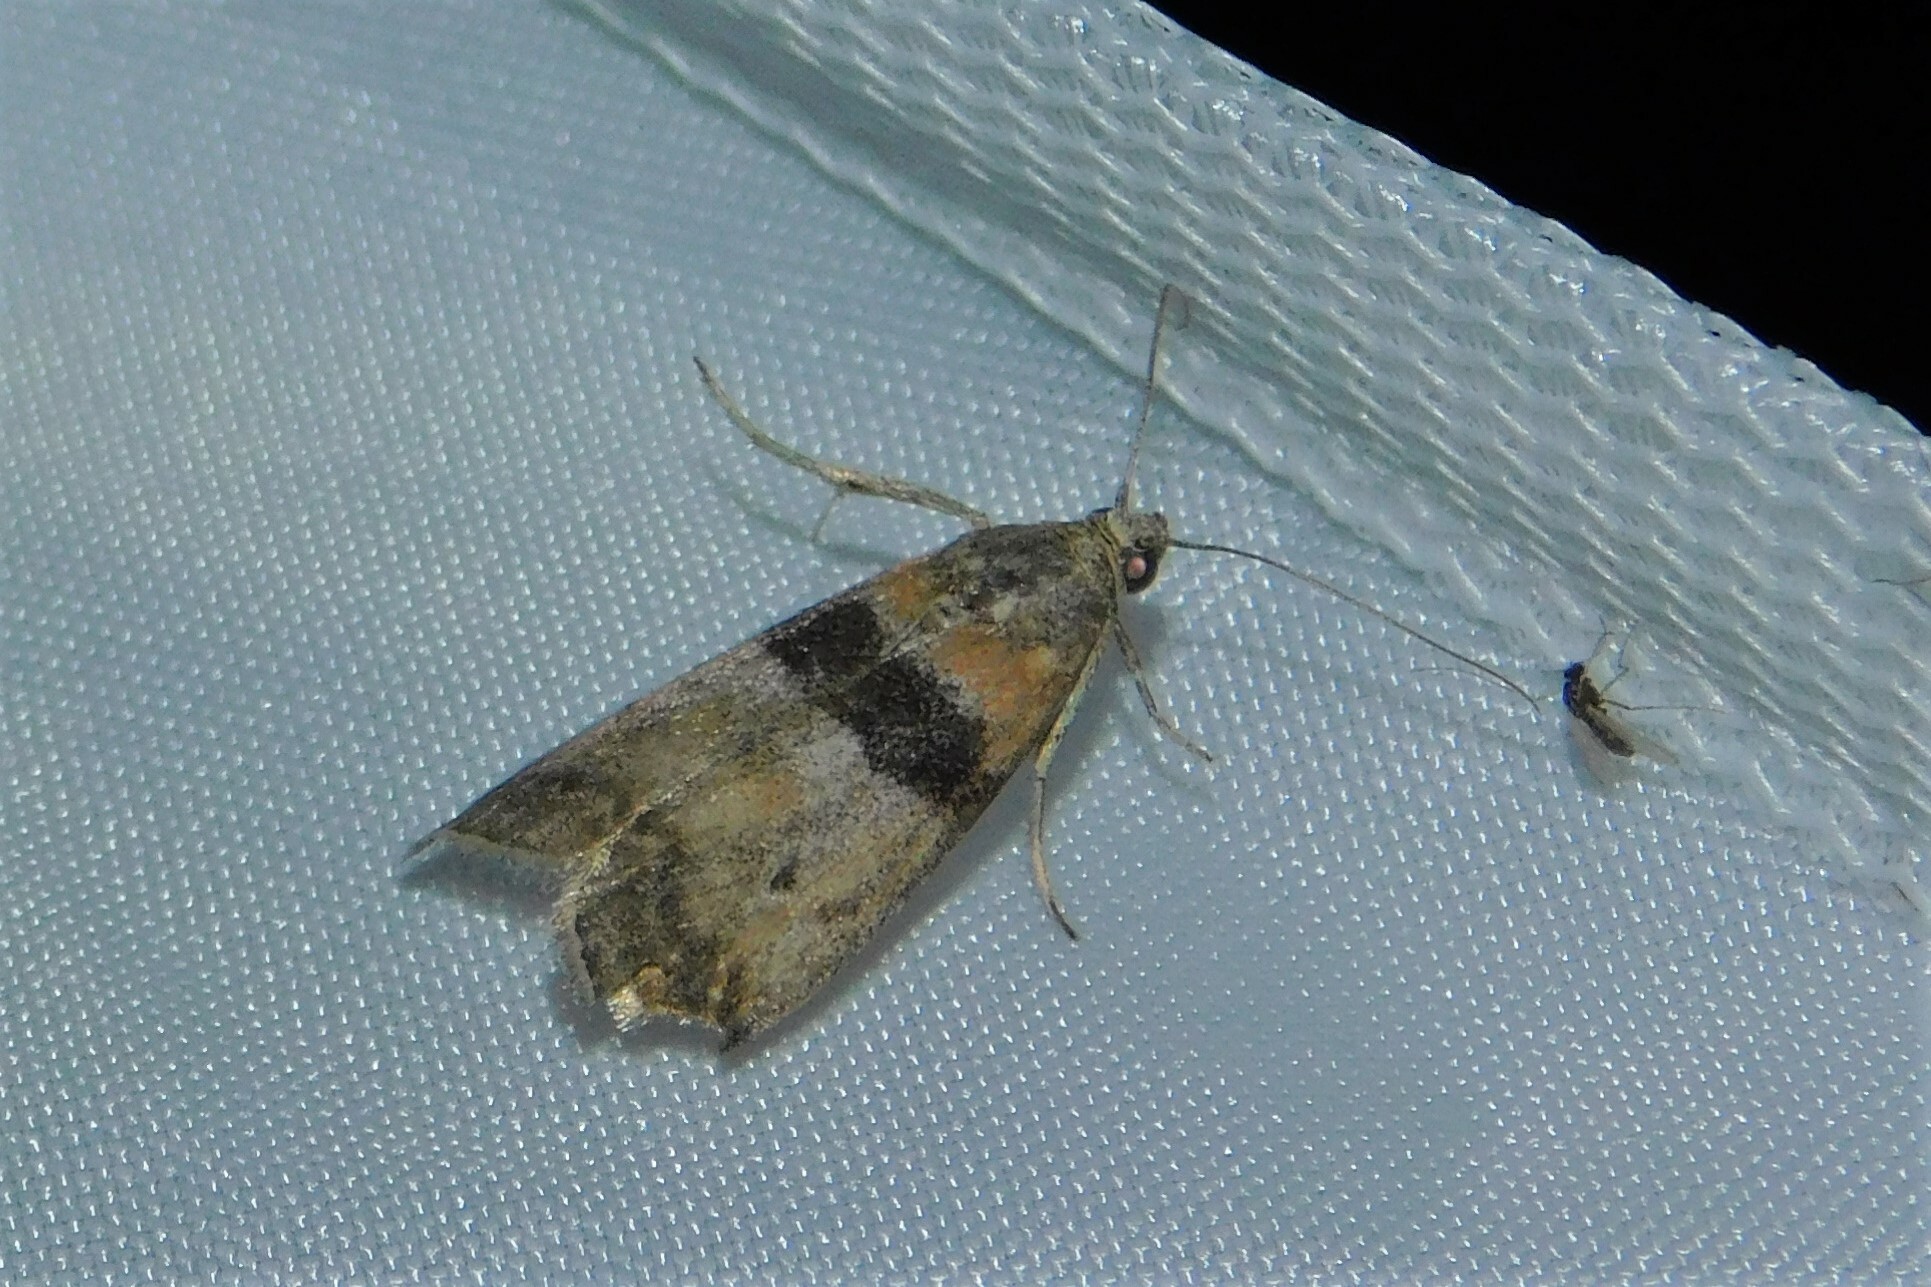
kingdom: Animalia
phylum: Arthropoda
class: Insecta
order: Lepidoptera
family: Pyralidae
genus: Sciota
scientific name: Sciota rhenella
